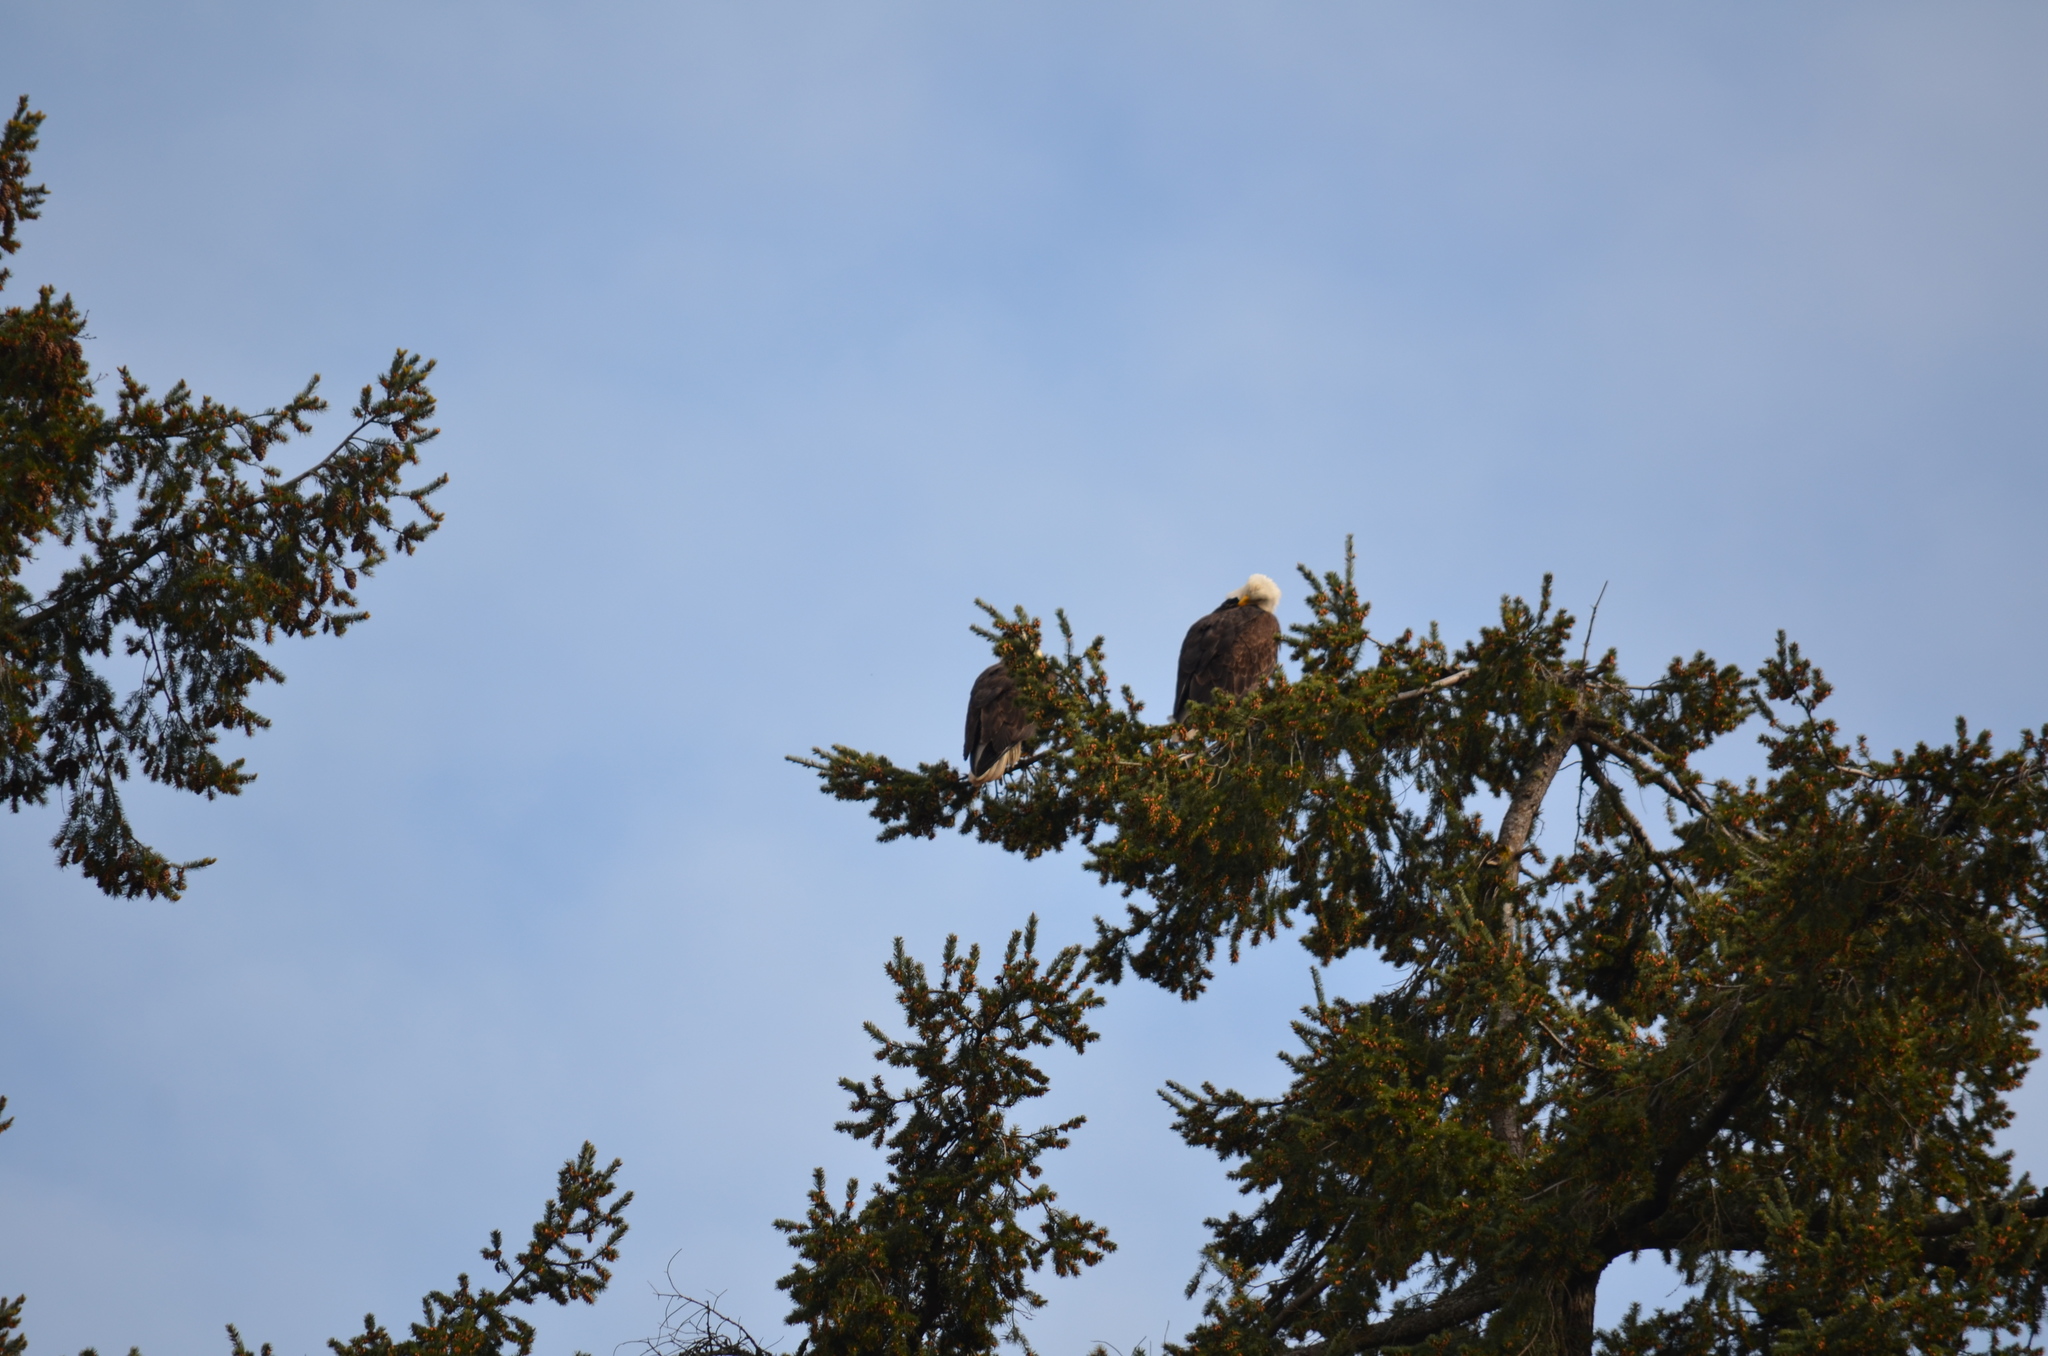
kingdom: Animalia
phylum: Chordata
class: Aves
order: Accipitriformes
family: Accipitridae
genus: Haliaeetus
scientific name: Haliaeetus leucocephalus
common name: Bald eagle
